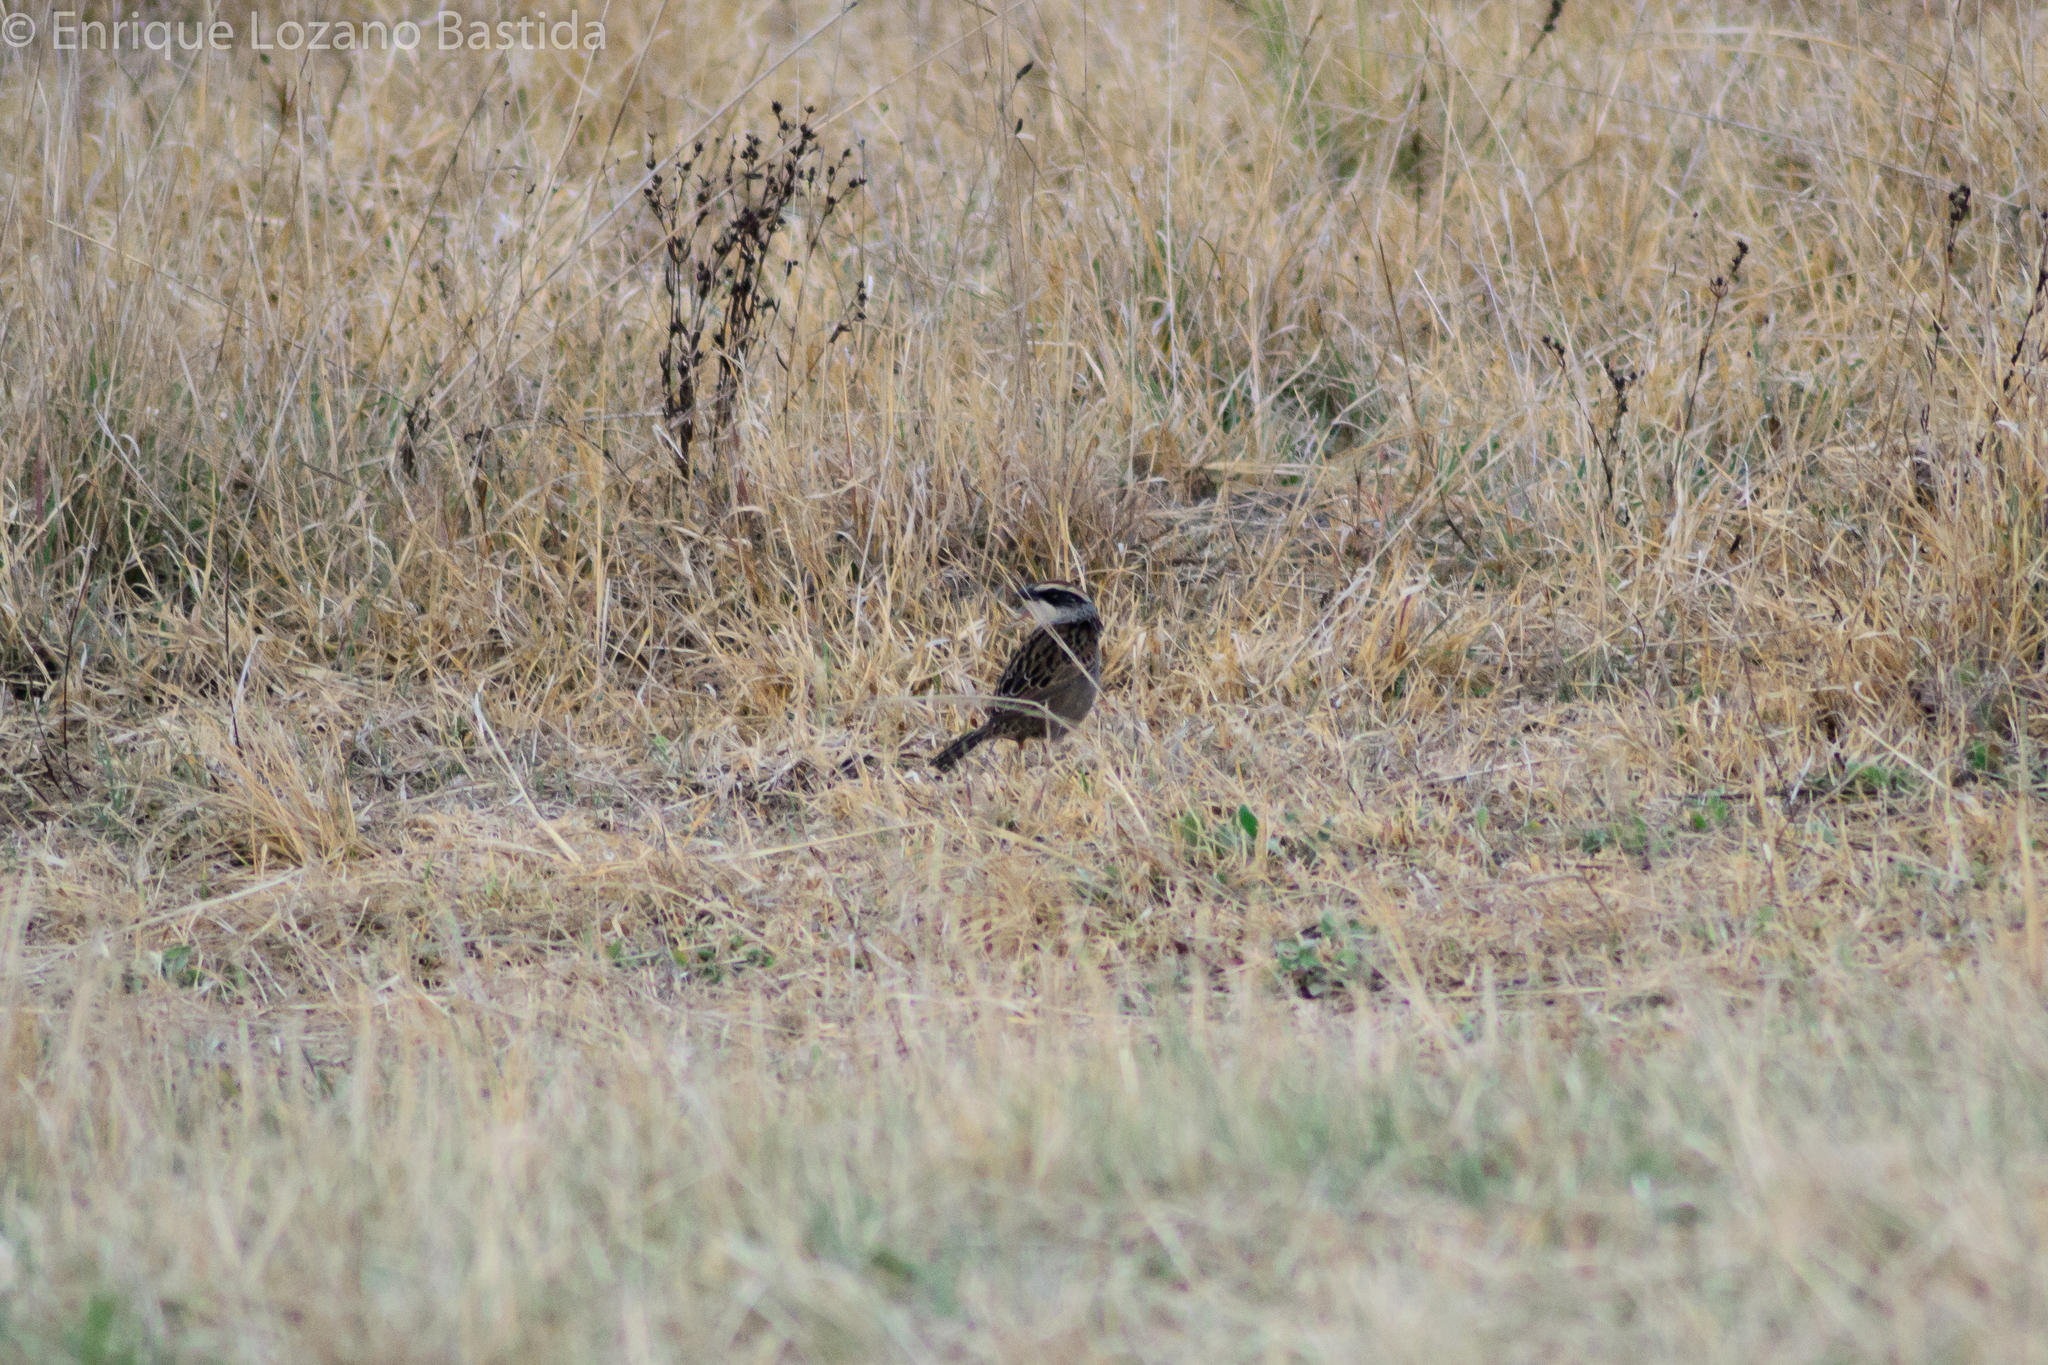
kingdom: Animalia
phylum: Chordata
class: Aves
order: Passeriformes
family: Passerellidae
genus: Oriturus
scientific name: Oriturus superciliosus
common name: Striped sparrow
